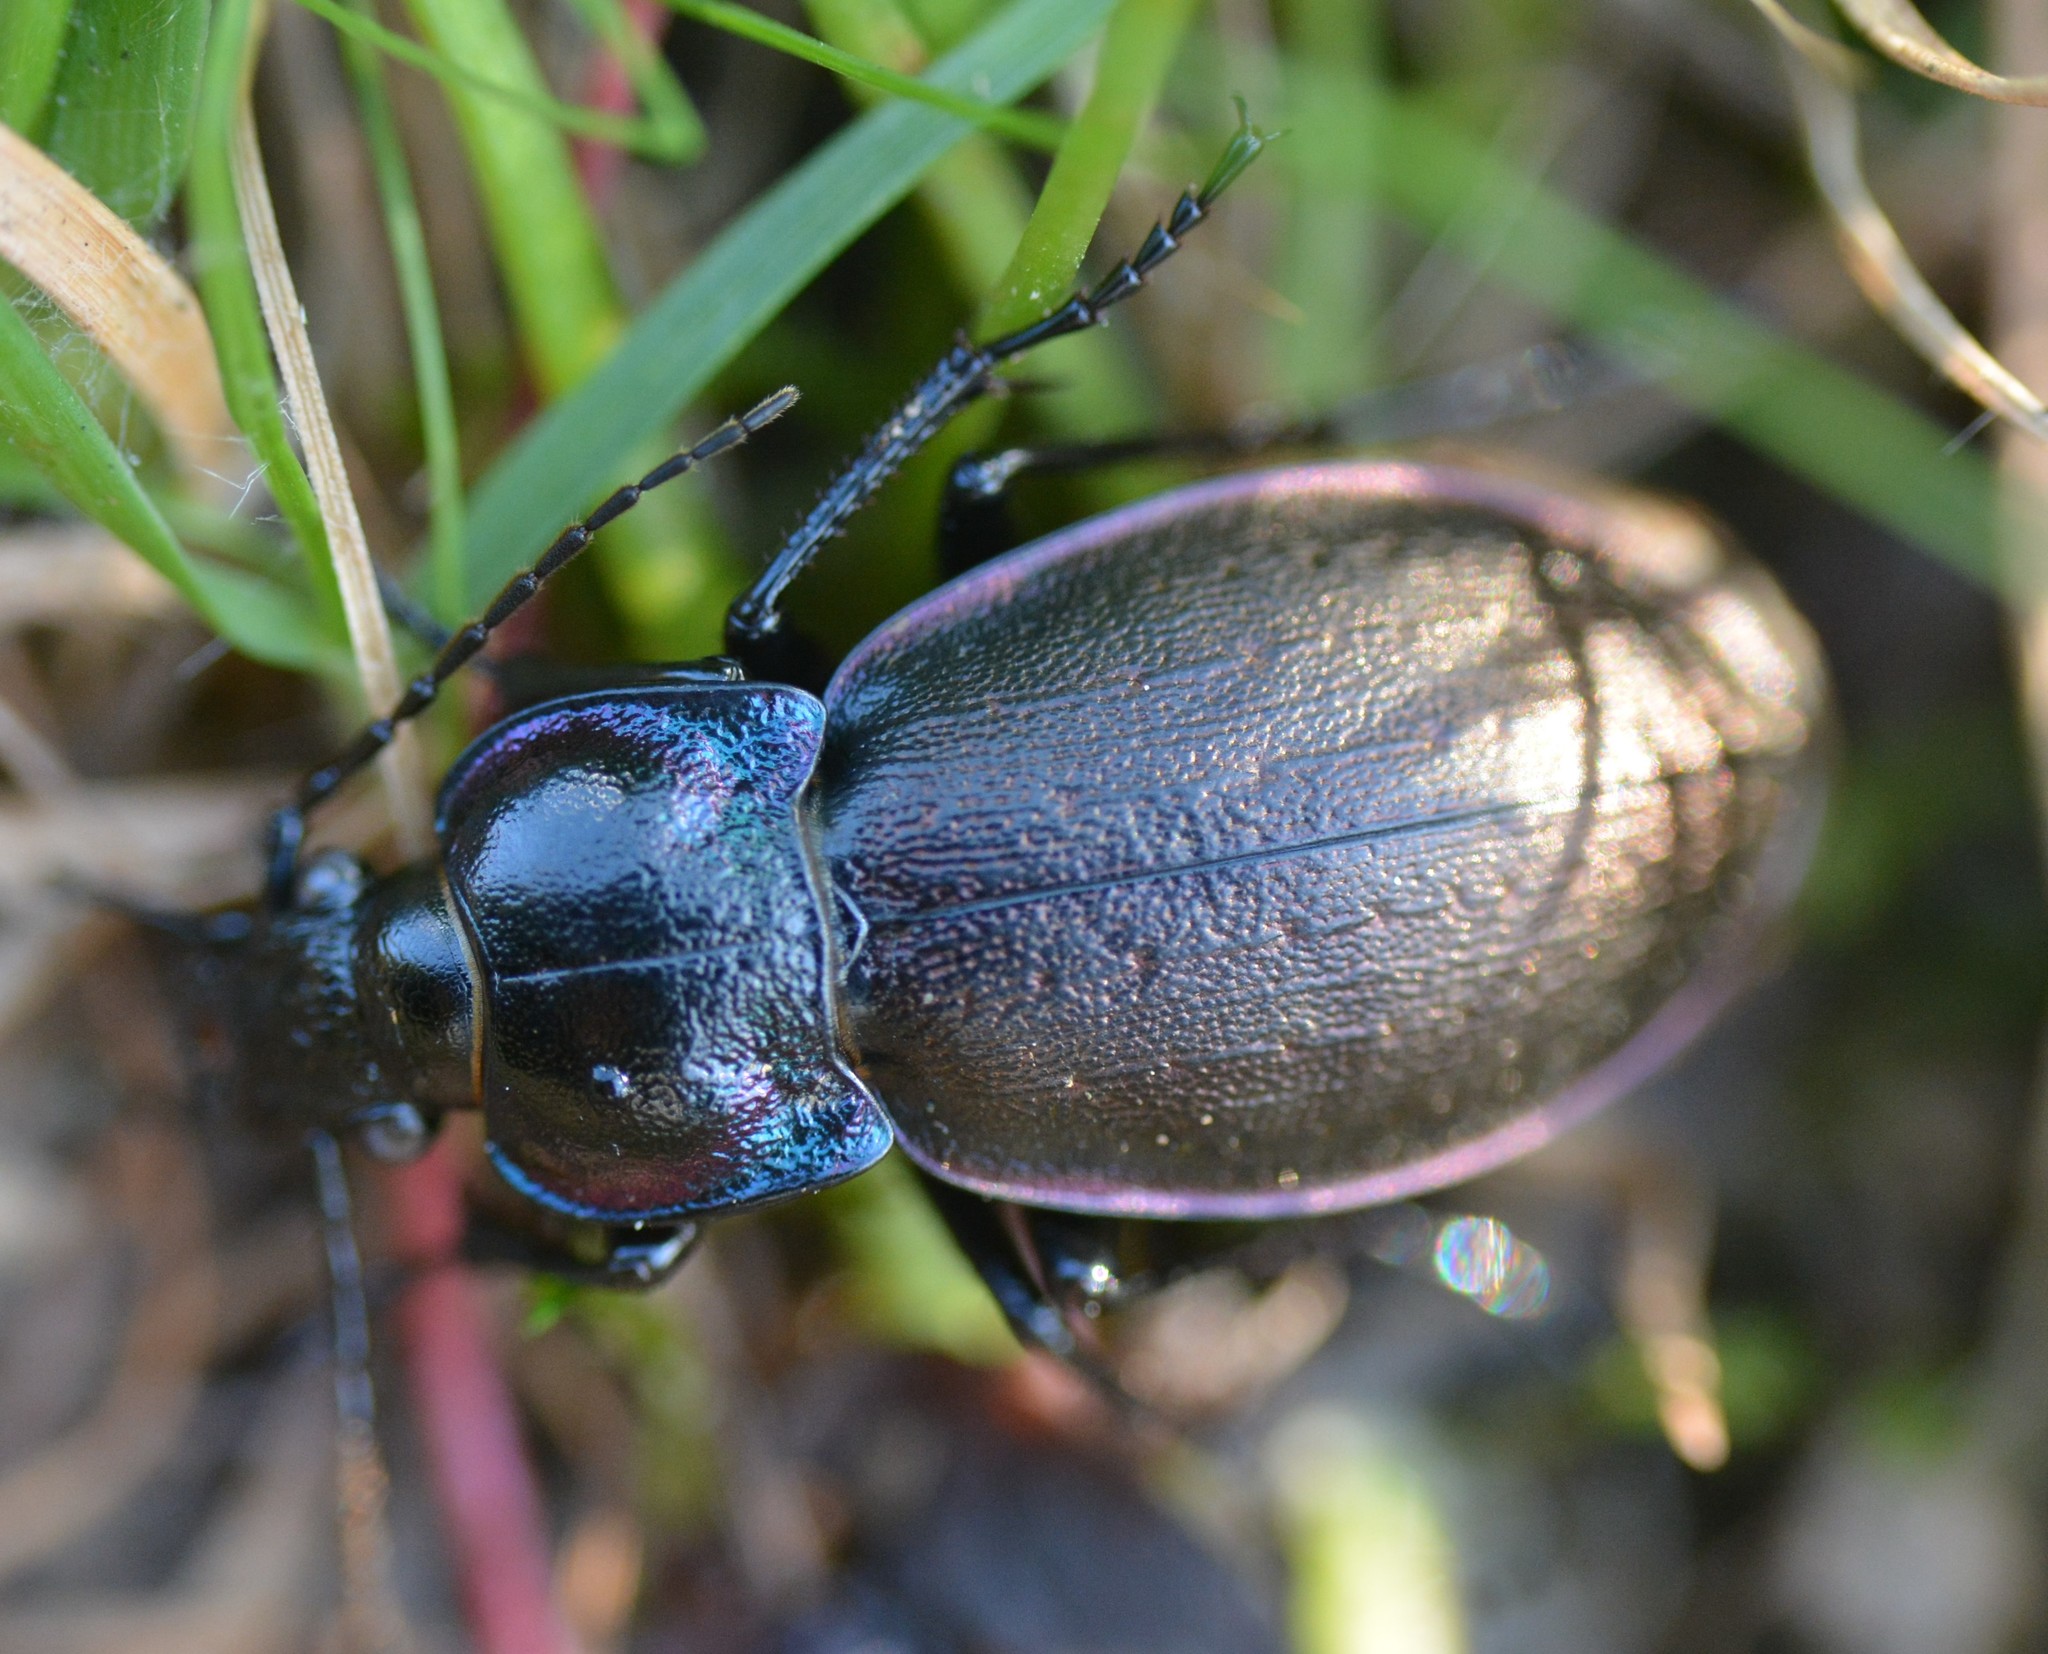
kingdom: Animalia
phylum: Arthropoda
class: Insecta
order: Coleoptera
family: Carabidae
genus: Carabus
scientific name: Carabus nemoralis
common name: European ground beetle
